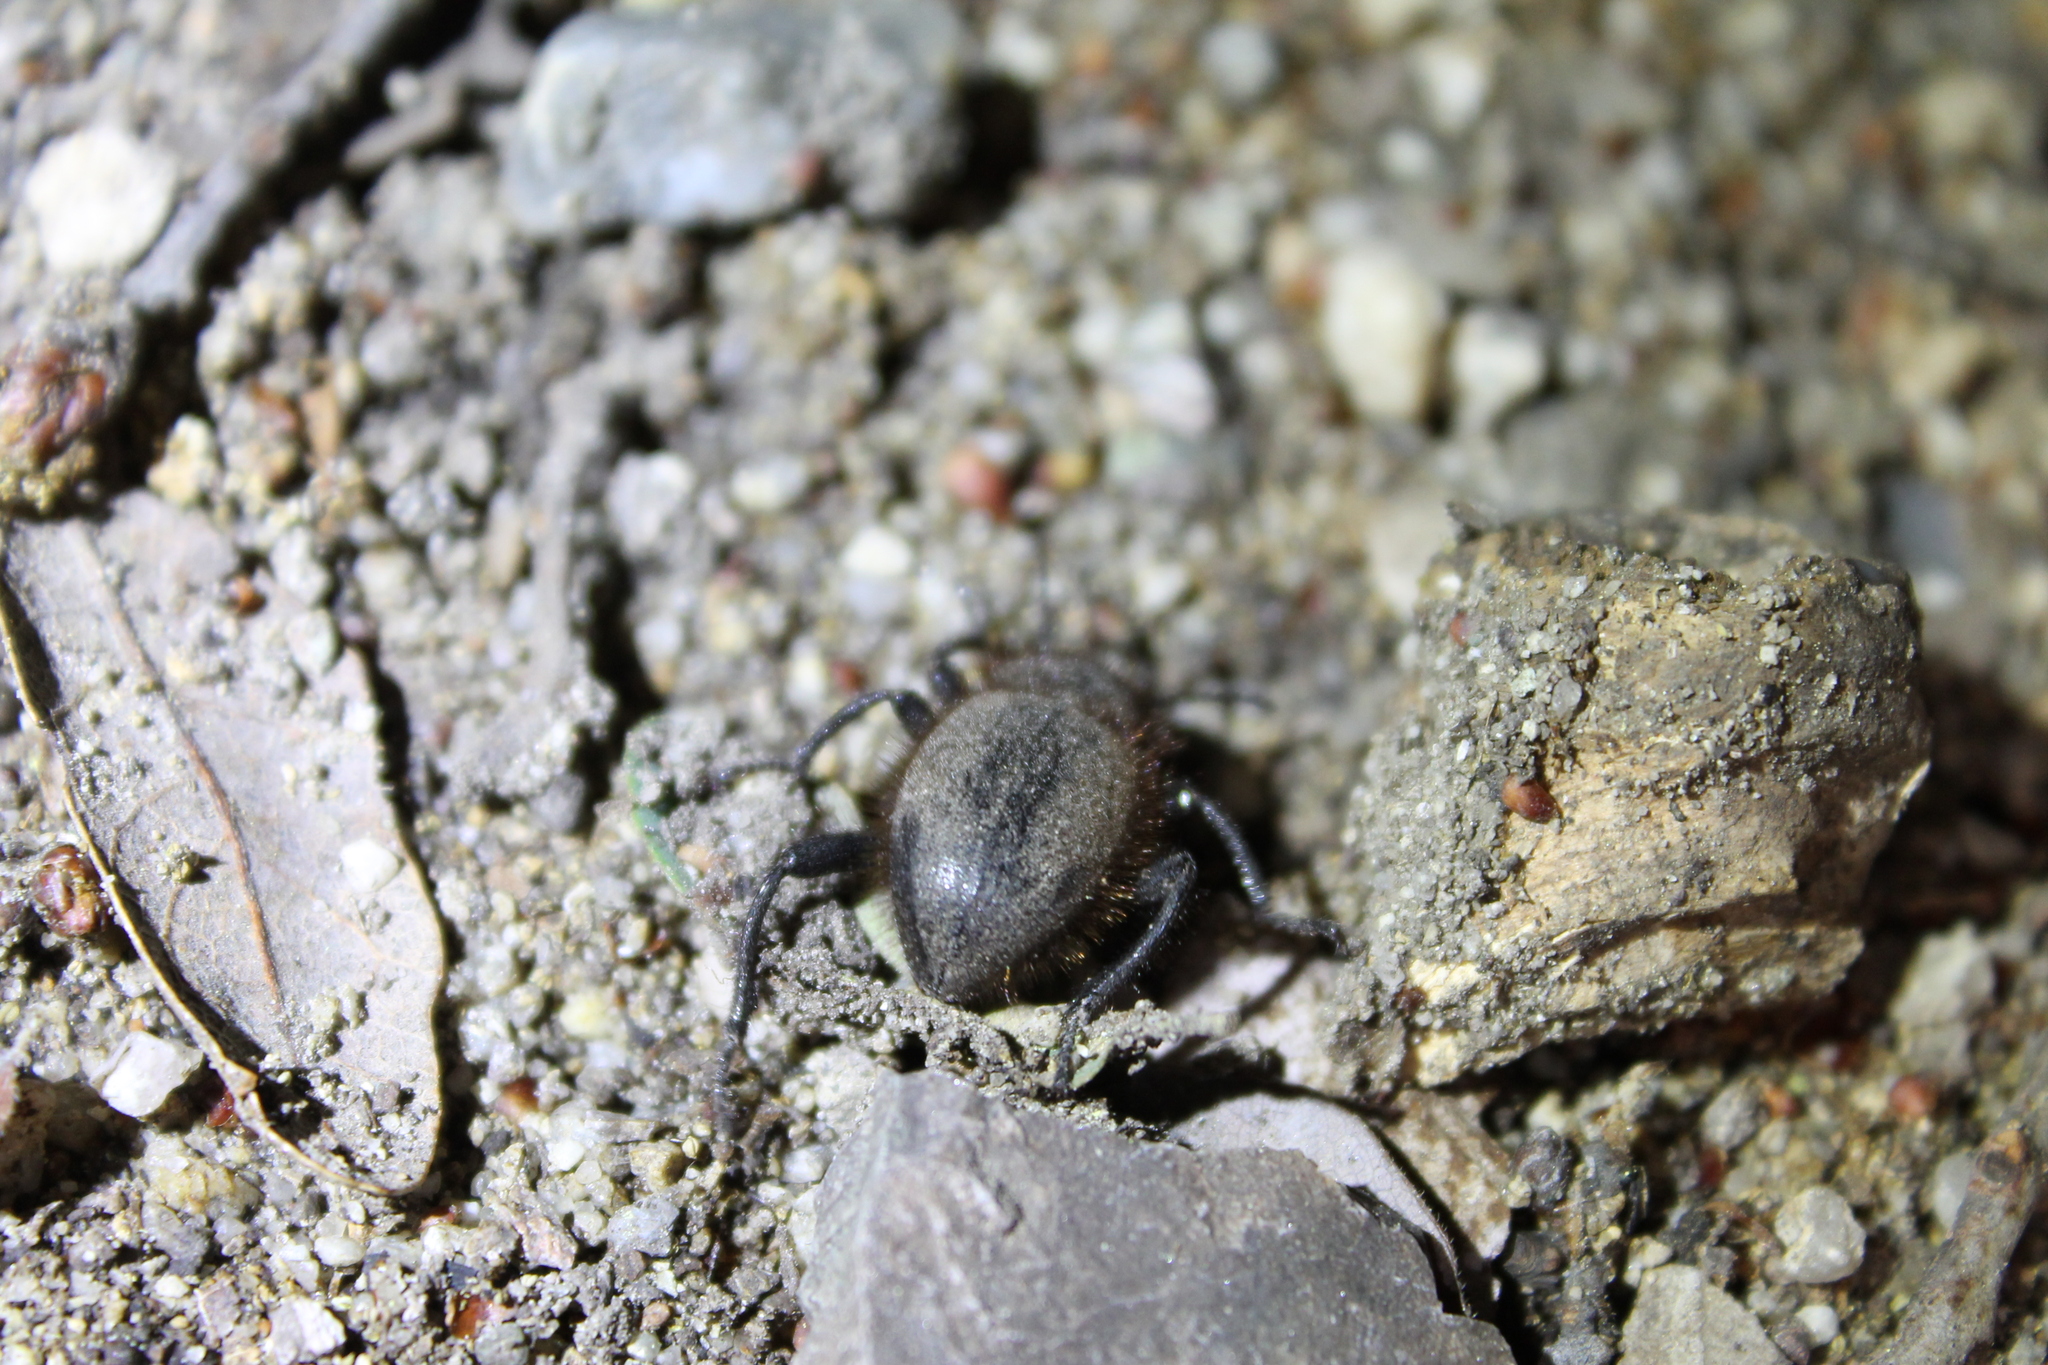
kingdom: Animalia
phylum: Arthropoda
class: Insecta
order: Coleoptera
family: Tenebrionidae
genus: Eleodes
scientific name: Eleodes osculans
